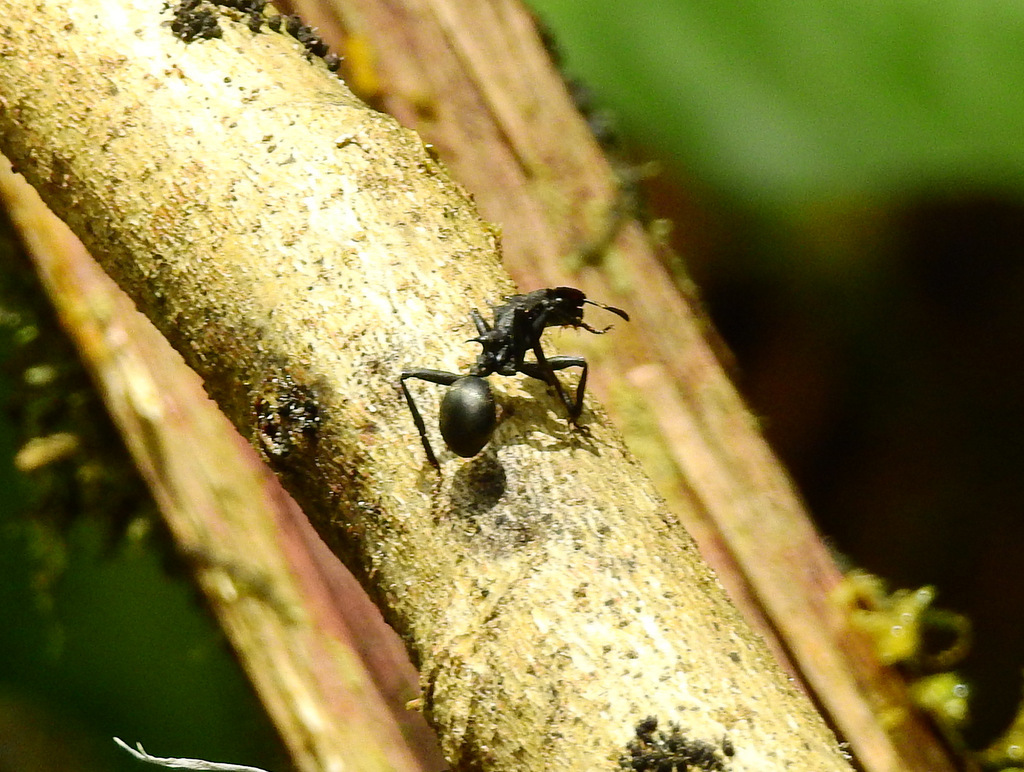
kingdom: Animalia
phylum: Arthropoda
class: Insecta
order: Hymenoptera
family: Formicidae
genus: Cephalotes
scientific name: Cephalotes atratus
